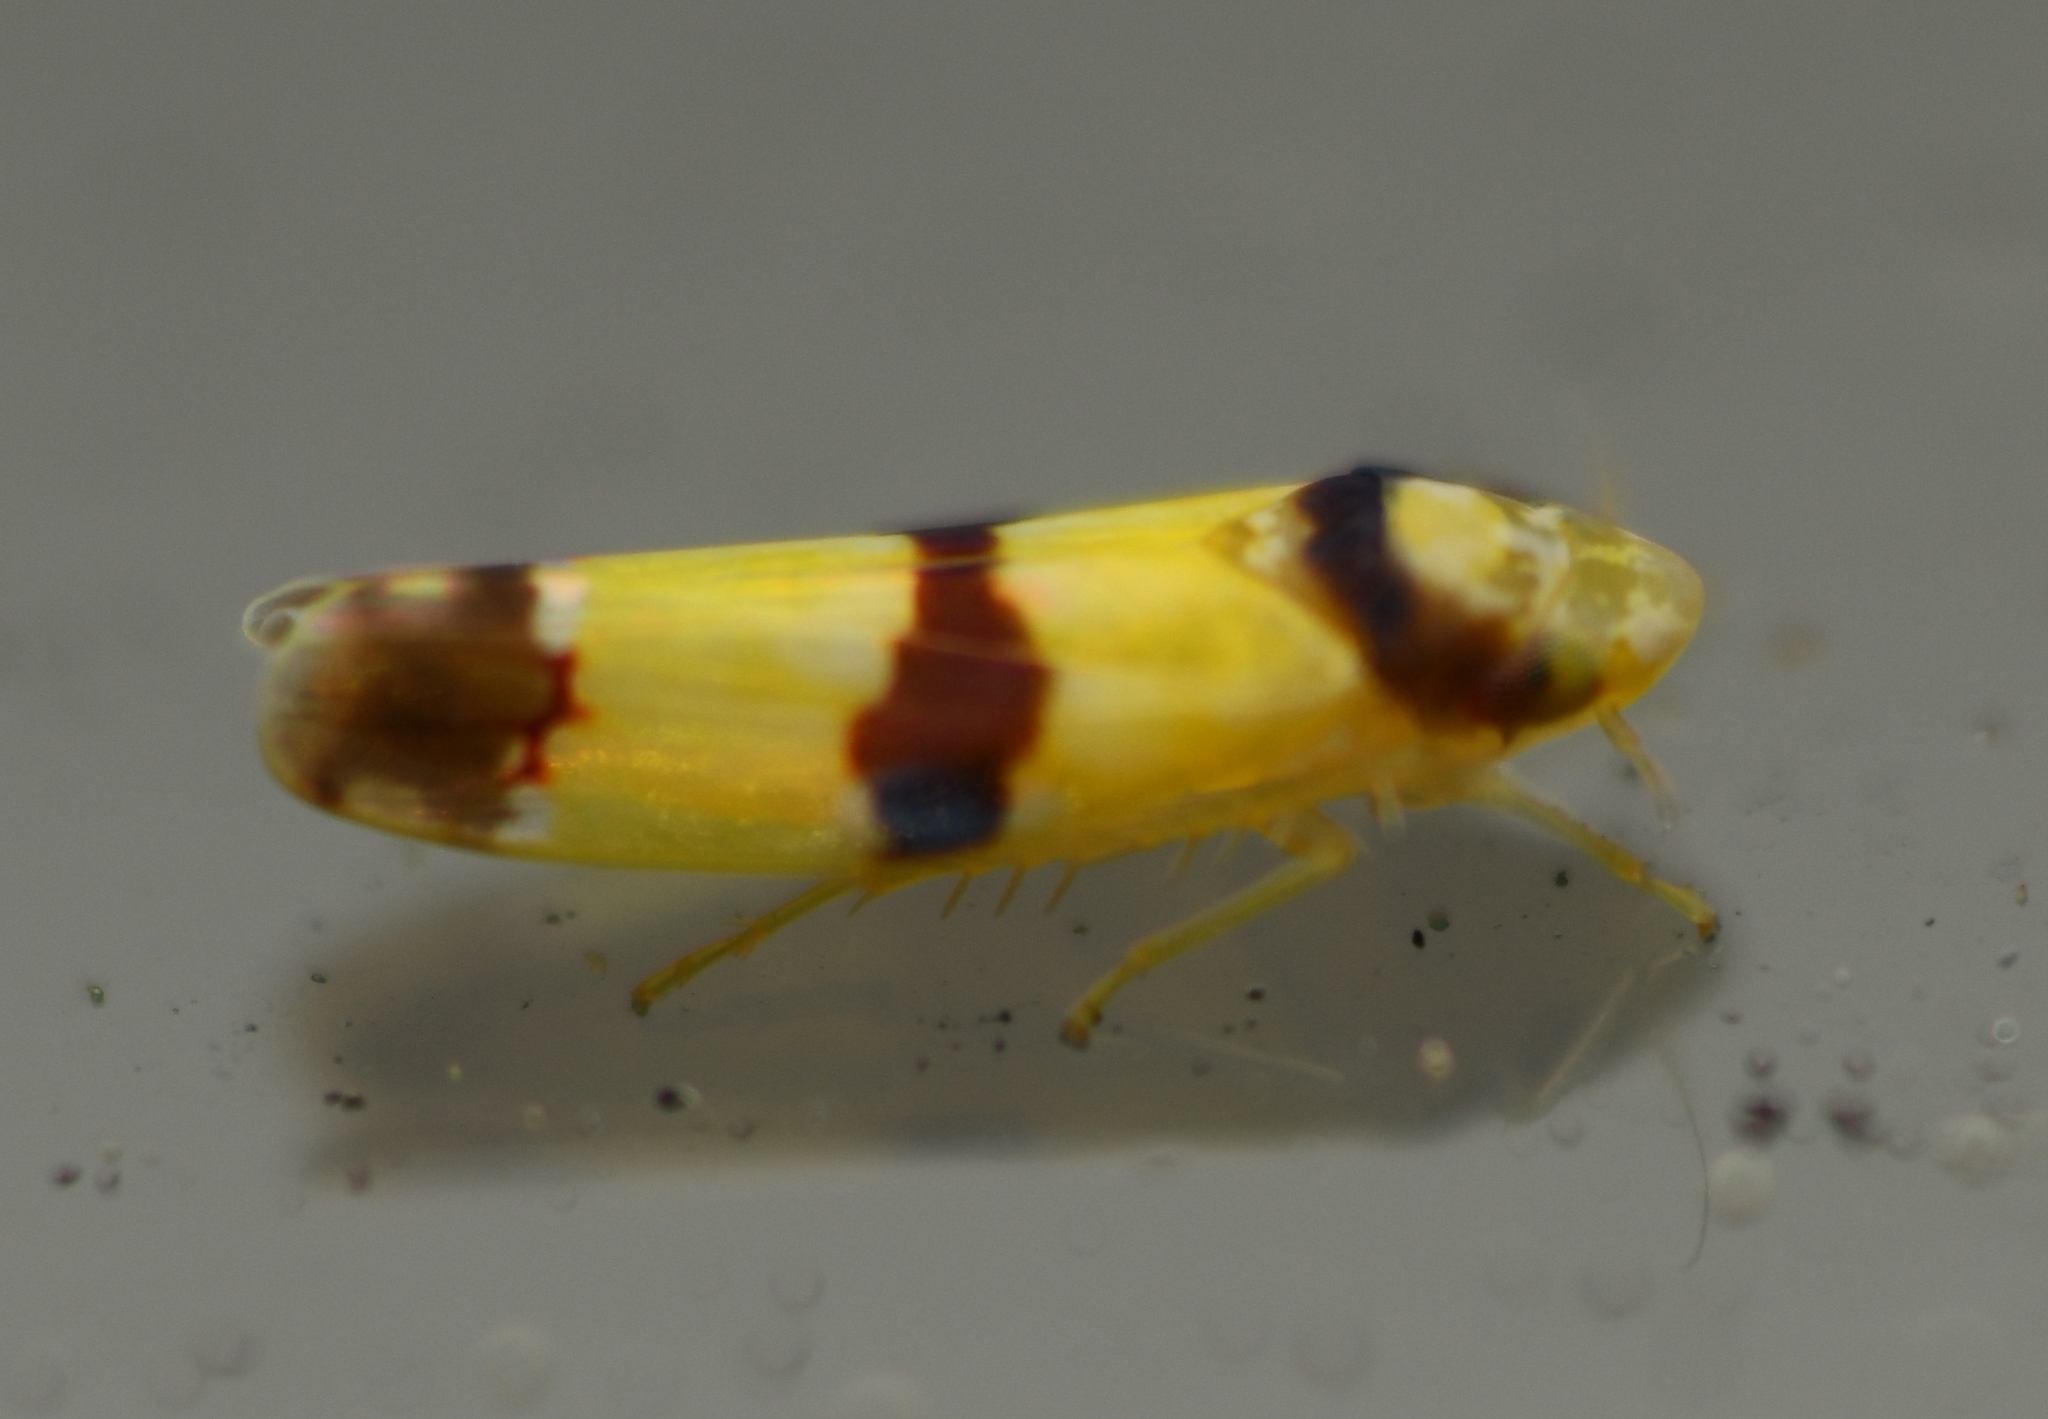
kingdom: Animalia
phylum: Arthropoda
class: Insecta
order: Hemiptera
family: Cicadellidae
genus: Erythroneura
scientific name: Erythroneura calycula
